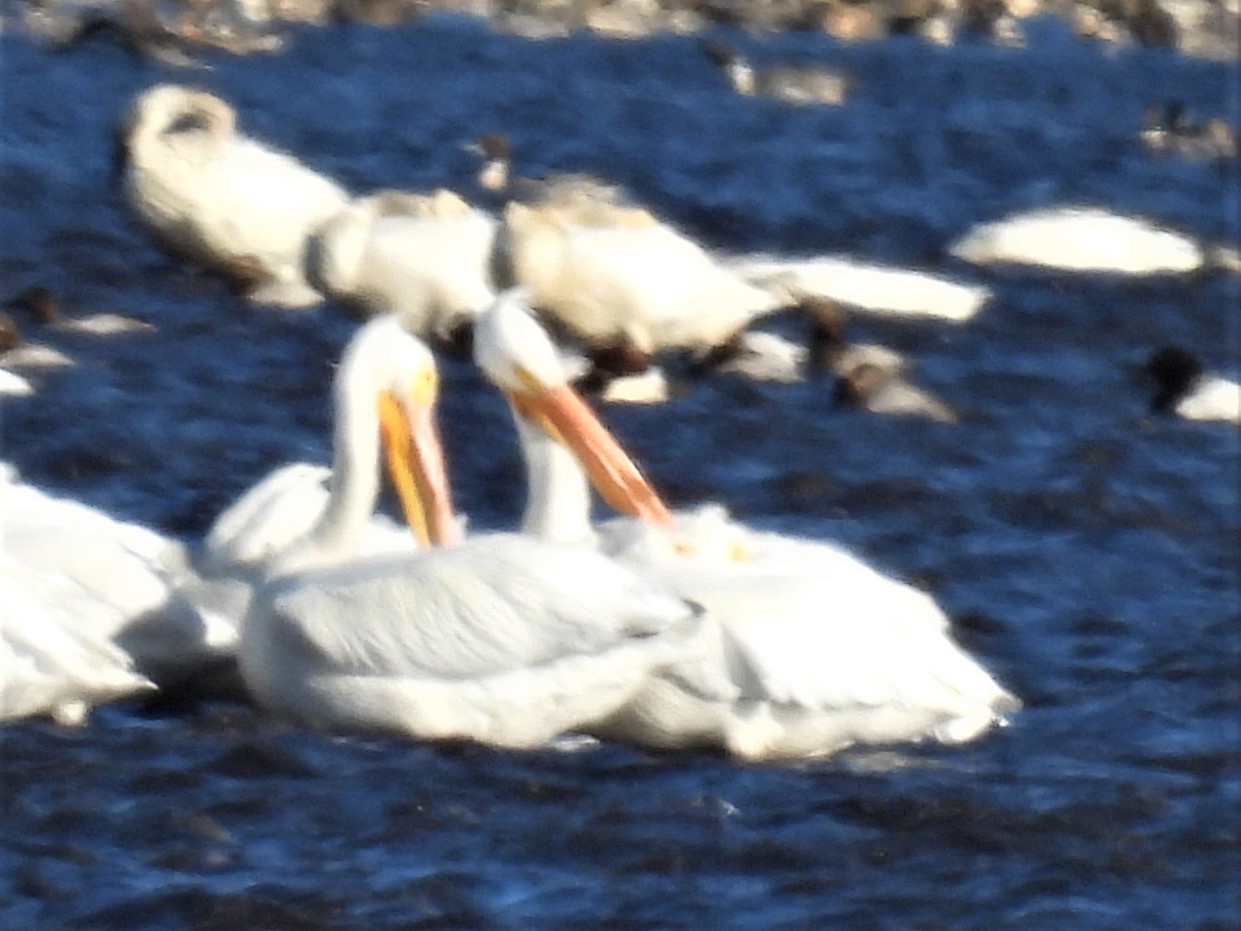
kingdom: Animalia
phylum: Chordata
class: Aves
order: Pelecaniformes
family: Pelecanidae
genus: Pelecanus
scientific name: Pelecanus erythrorhynchos
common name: American white pelican
